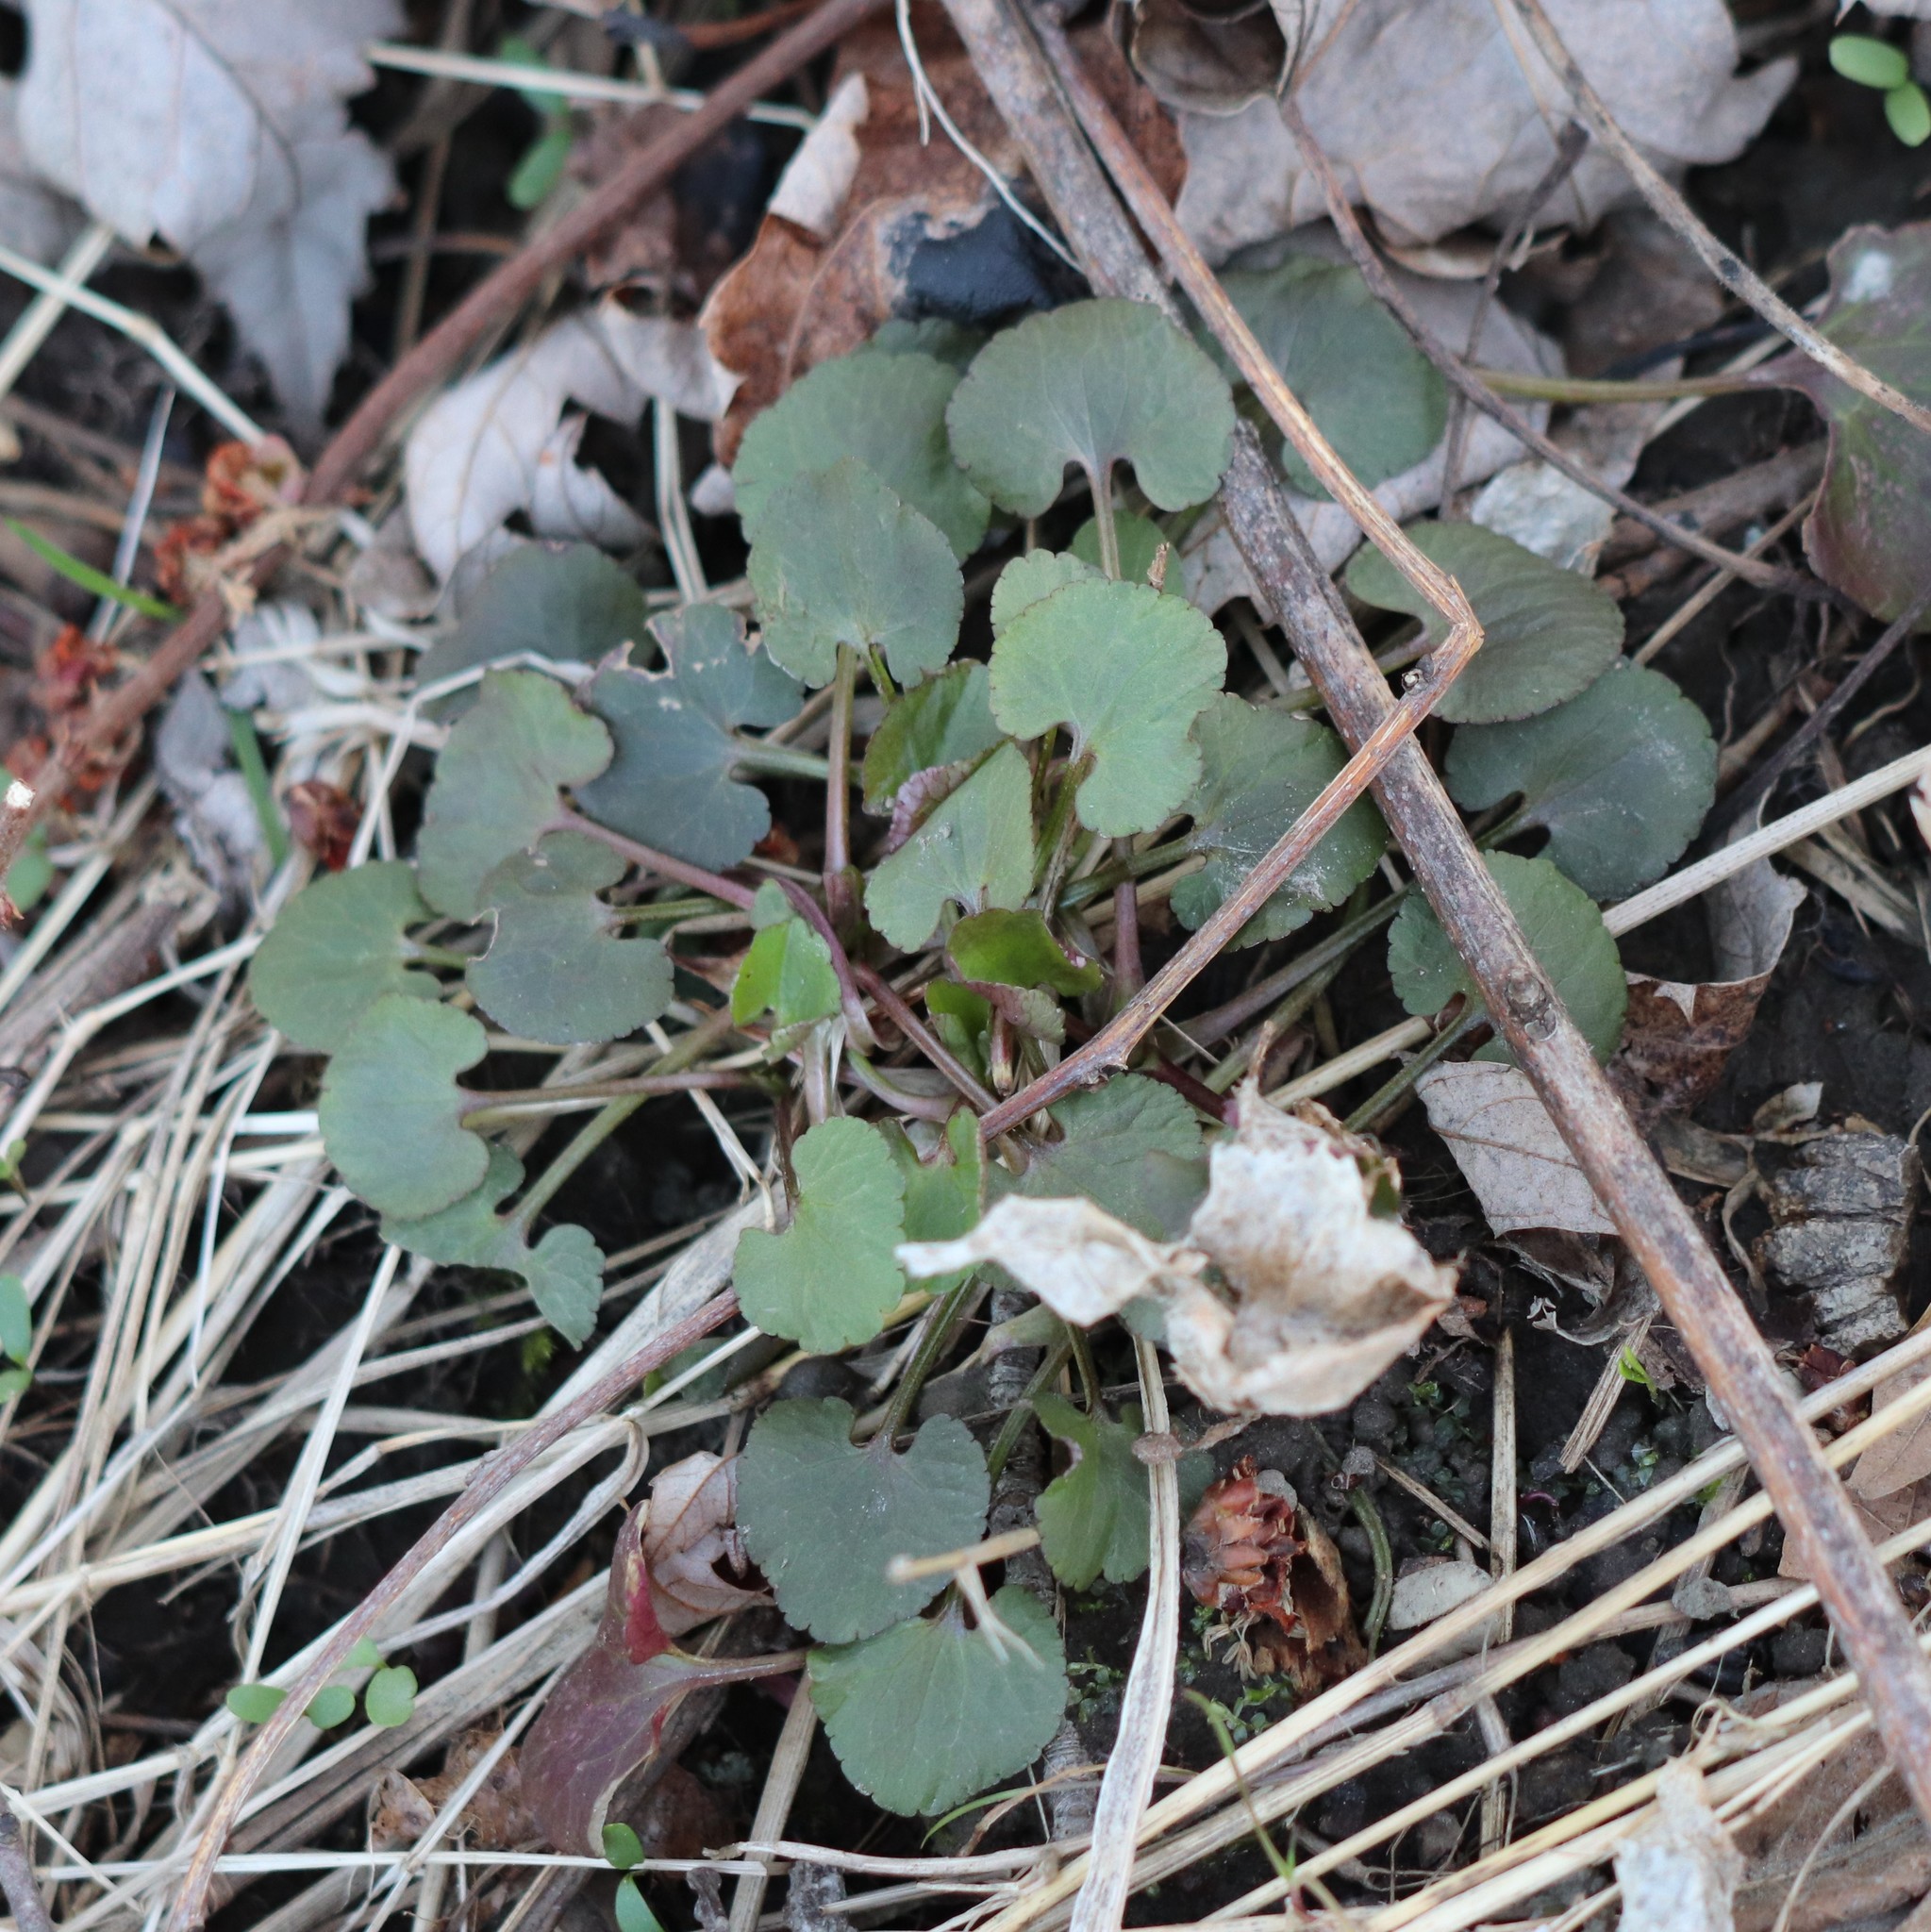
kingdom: Plantae
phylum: Tracheophyta
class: Magnoliopsida
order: Ranunculales
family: Ranunculaceae
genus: Ranunculus
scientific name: Ranunculus abortivus
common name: Early wood buttercup
